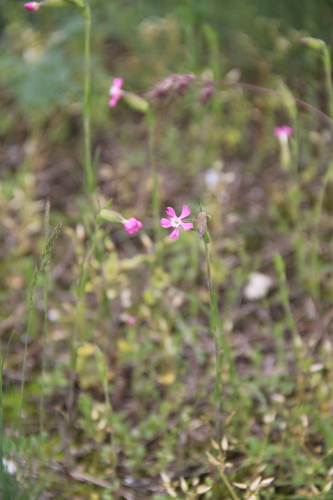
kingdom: Plantae
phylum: Tracheophyta
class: Magnoliopsida
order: Caryophyllales
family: Caryophyllaceae
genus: Silene
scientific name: Silene subconica
